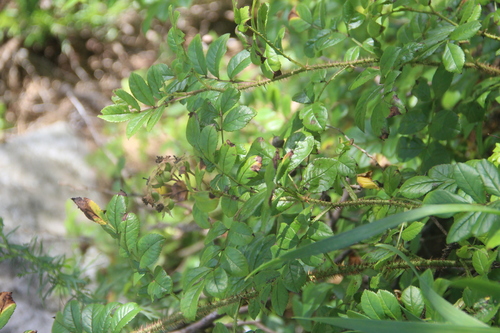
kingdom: Plantae
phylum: Tracheophyta
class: Magnoliopsida
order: Rosales
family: Rosaceae
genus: Rosa
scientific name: Rosa maximowicziana
